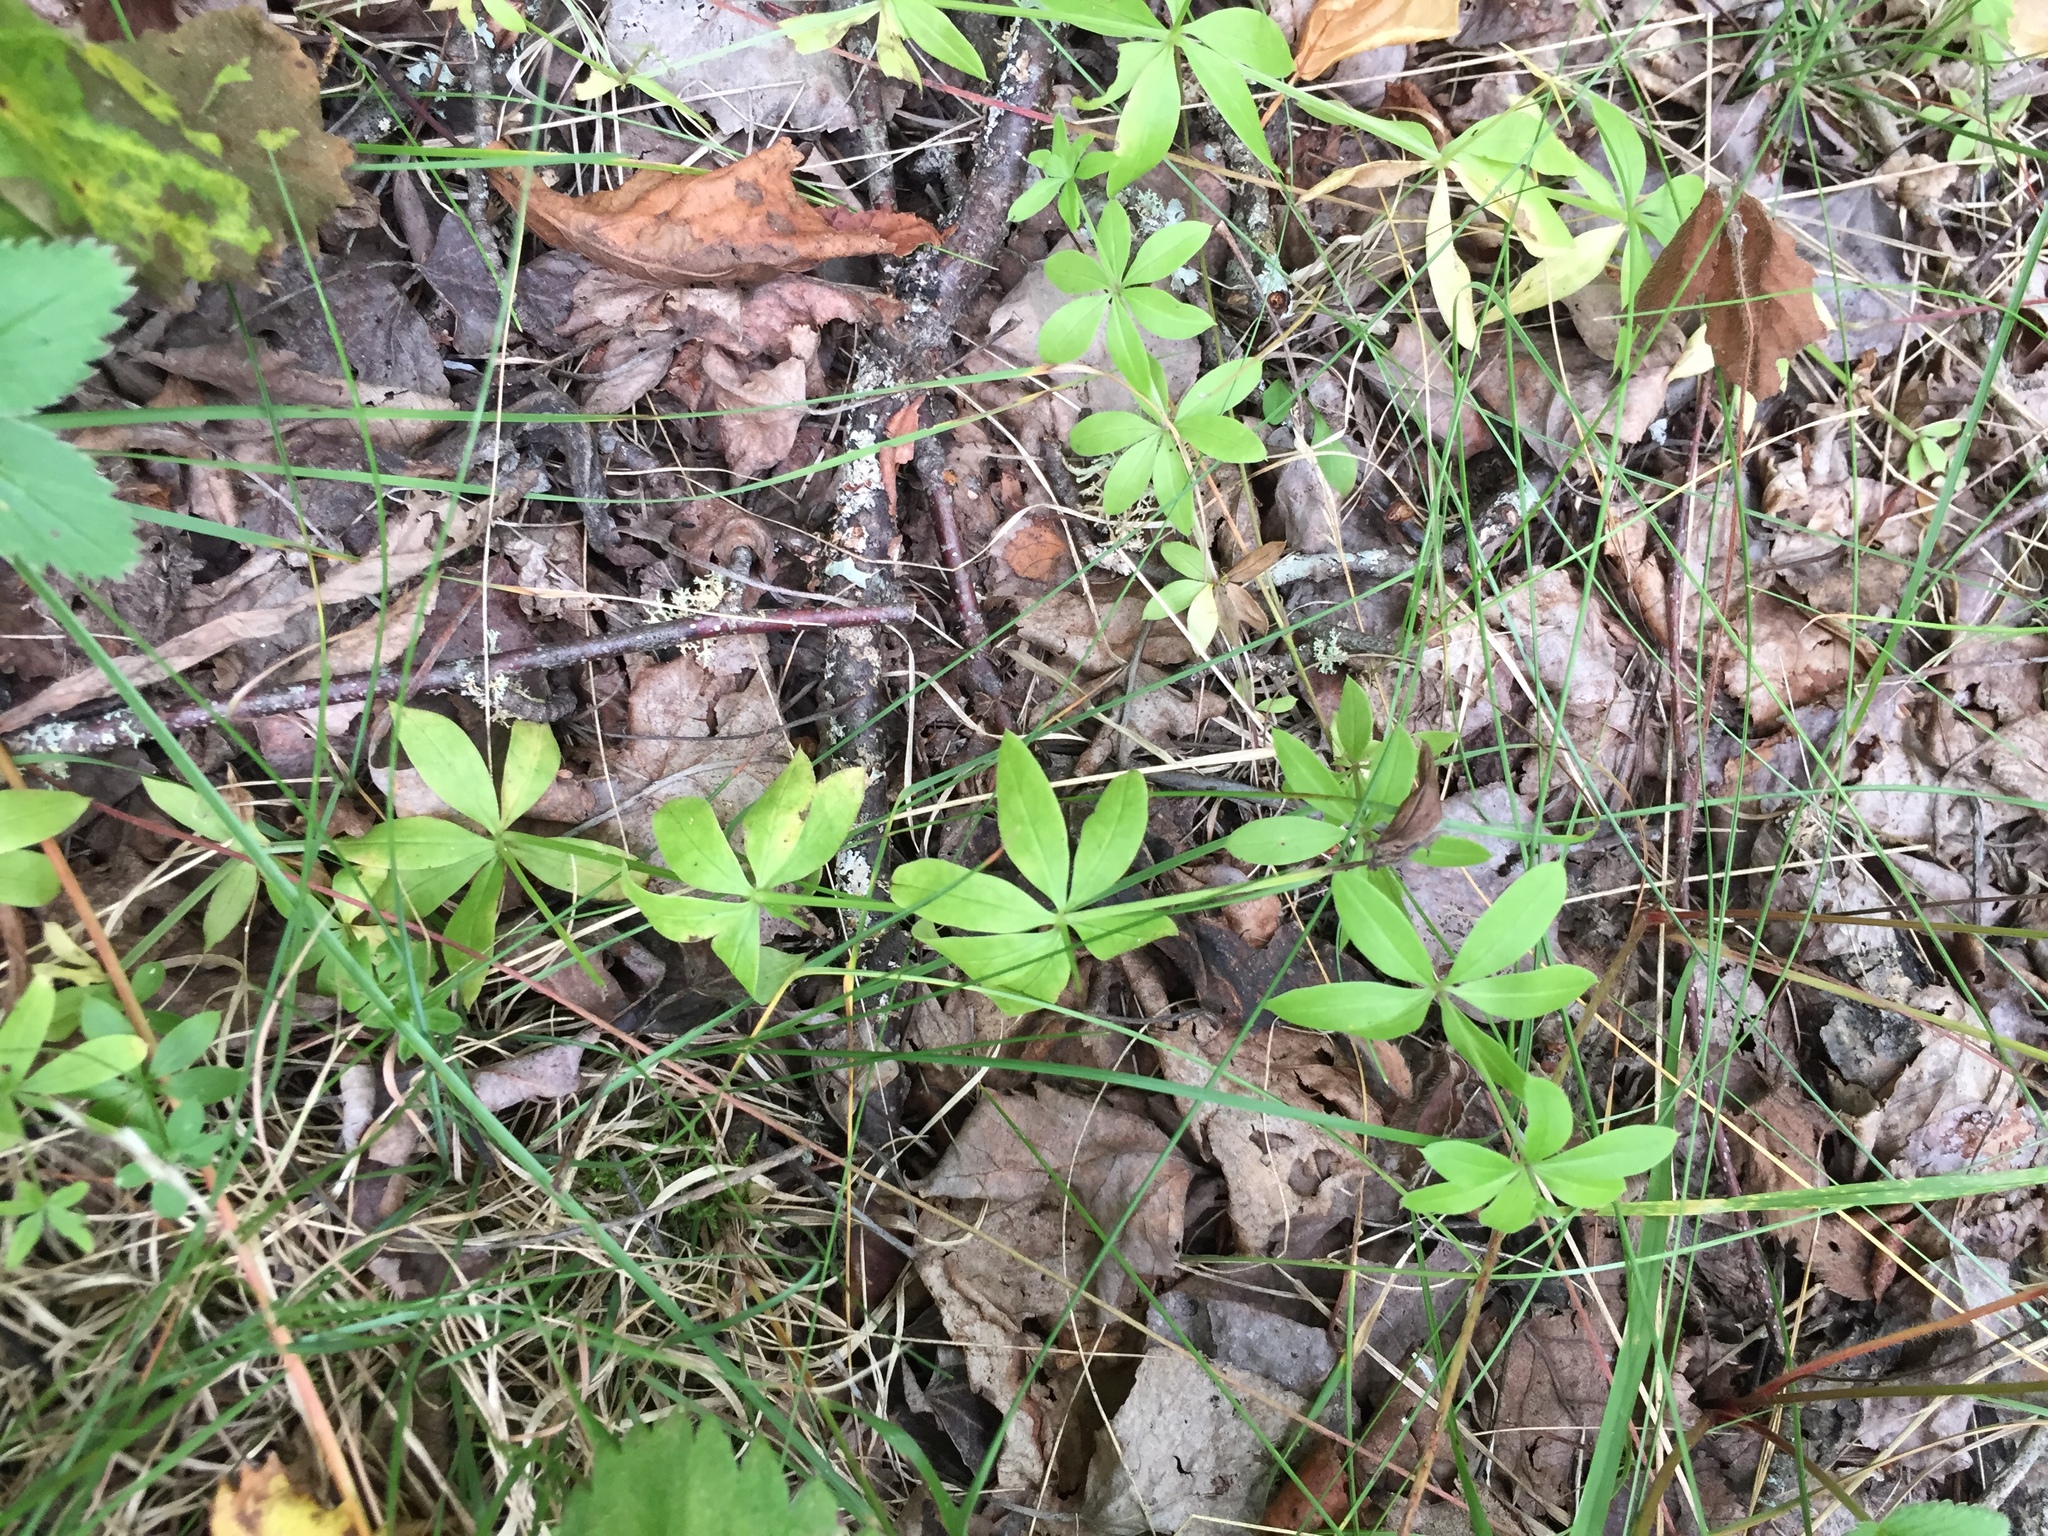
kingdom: Plantae
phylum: Tracheophyta
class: Magnoliopsida
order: Gentianales
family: Rubiaceae
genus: Galium
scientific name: Galium triflorum
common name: Fragrant bedstraw
